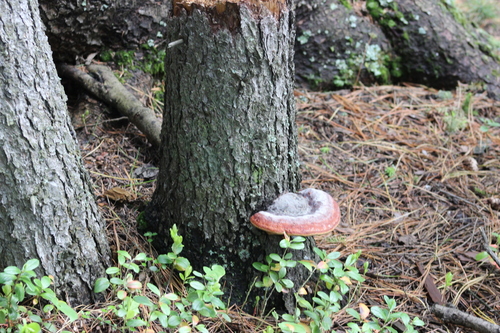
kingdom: Fungi
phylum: Basidiomycota
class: Agaricomycetes
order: Polyporales
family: Fomitopsidaceae
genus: Fomitopsis
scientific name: Fomitopsis pinicola
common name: Red-belted bracket
